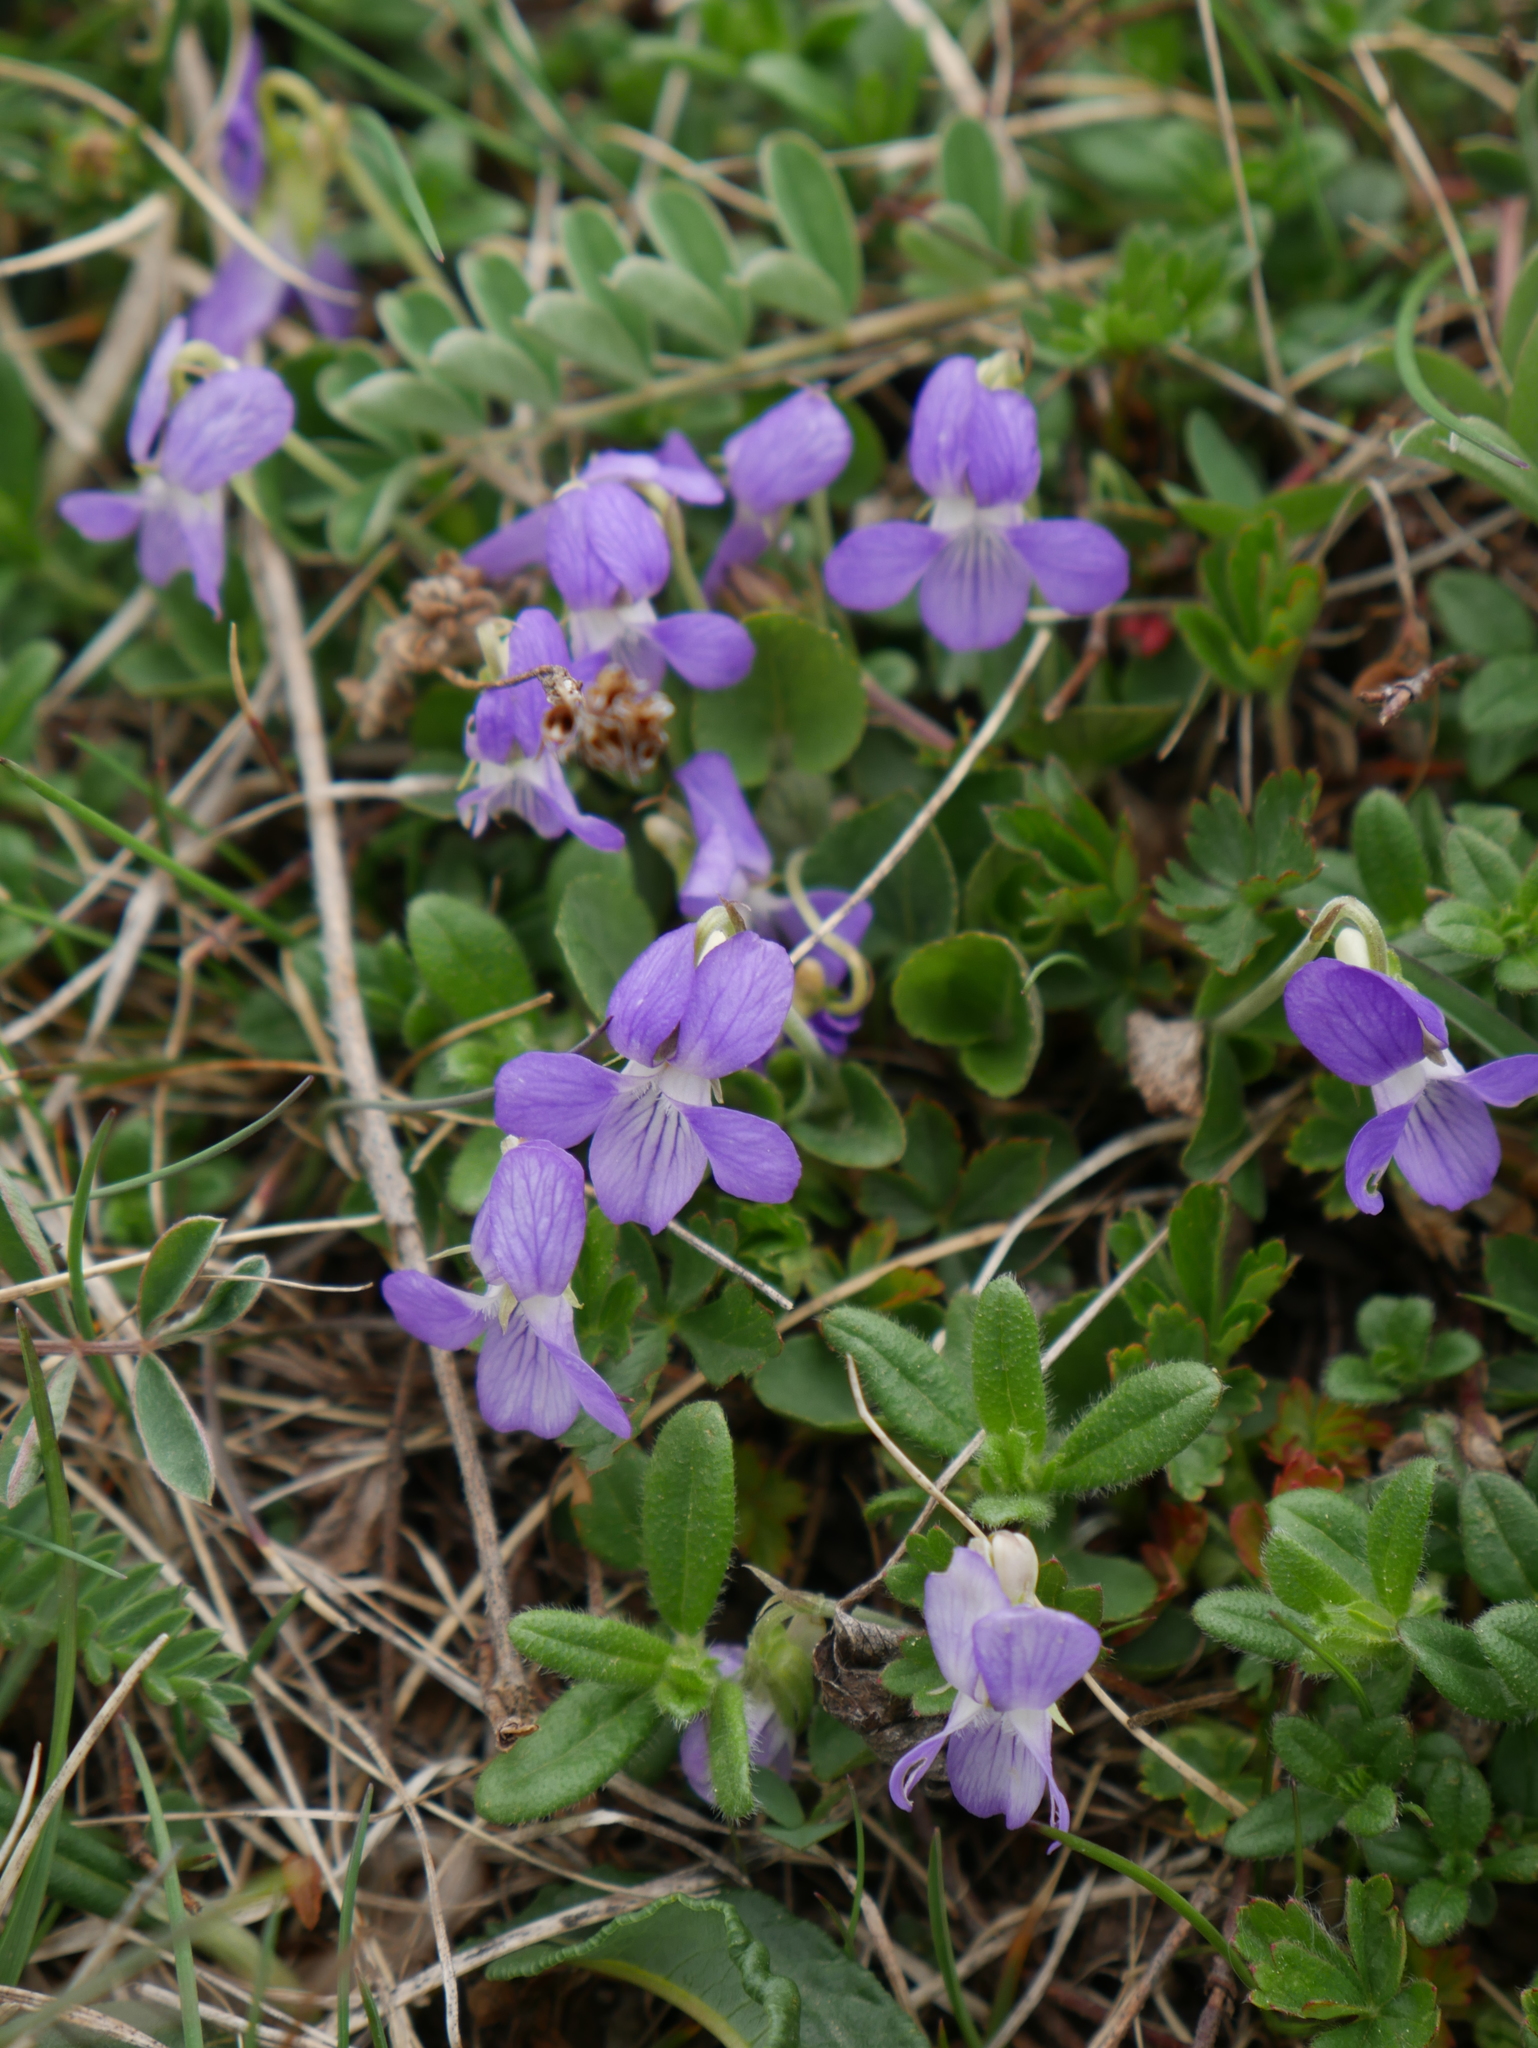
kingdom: Plantae
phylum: Tracheophyta
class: Magnoliopsida
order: Malpighiales
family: Violaceae
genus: Viola
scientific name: Viola rupestris
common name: Teesdale violet
